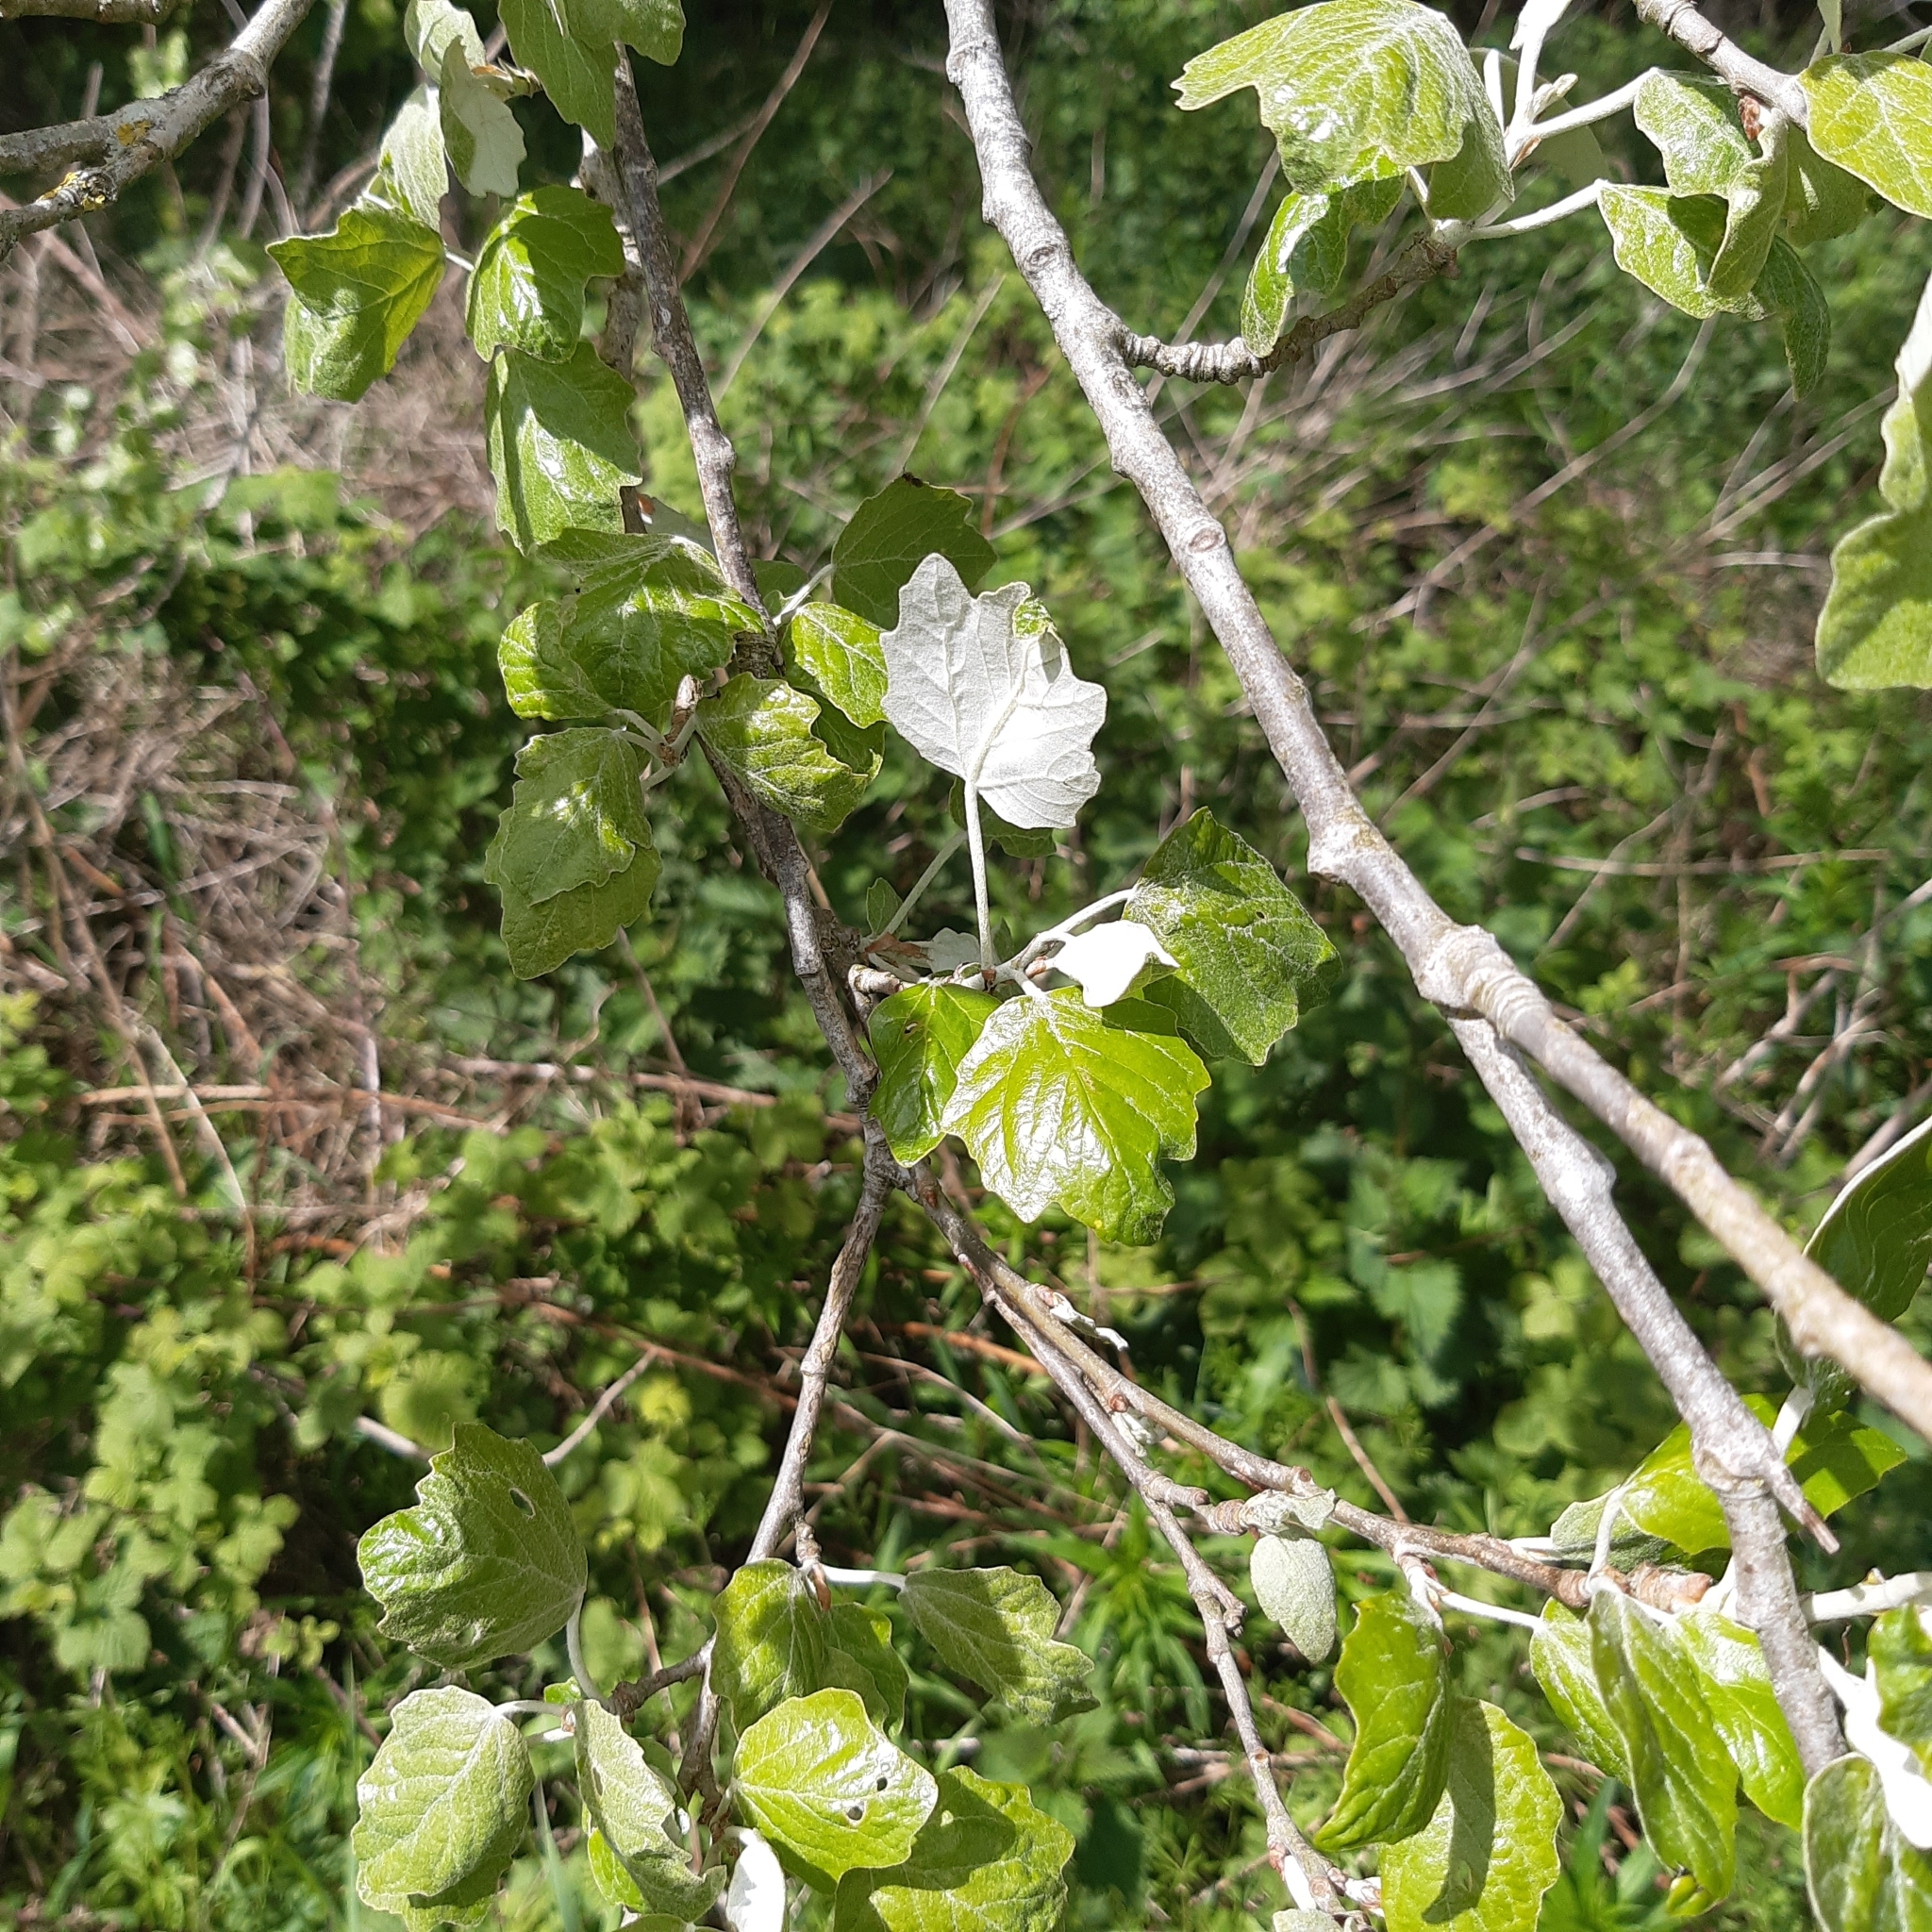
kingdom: Plantae
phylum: Tracheophyta
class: Magnoliopsida
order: Malpighiales
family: Salicaceae
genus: Populus
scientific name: Populus alba
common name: White poplar
